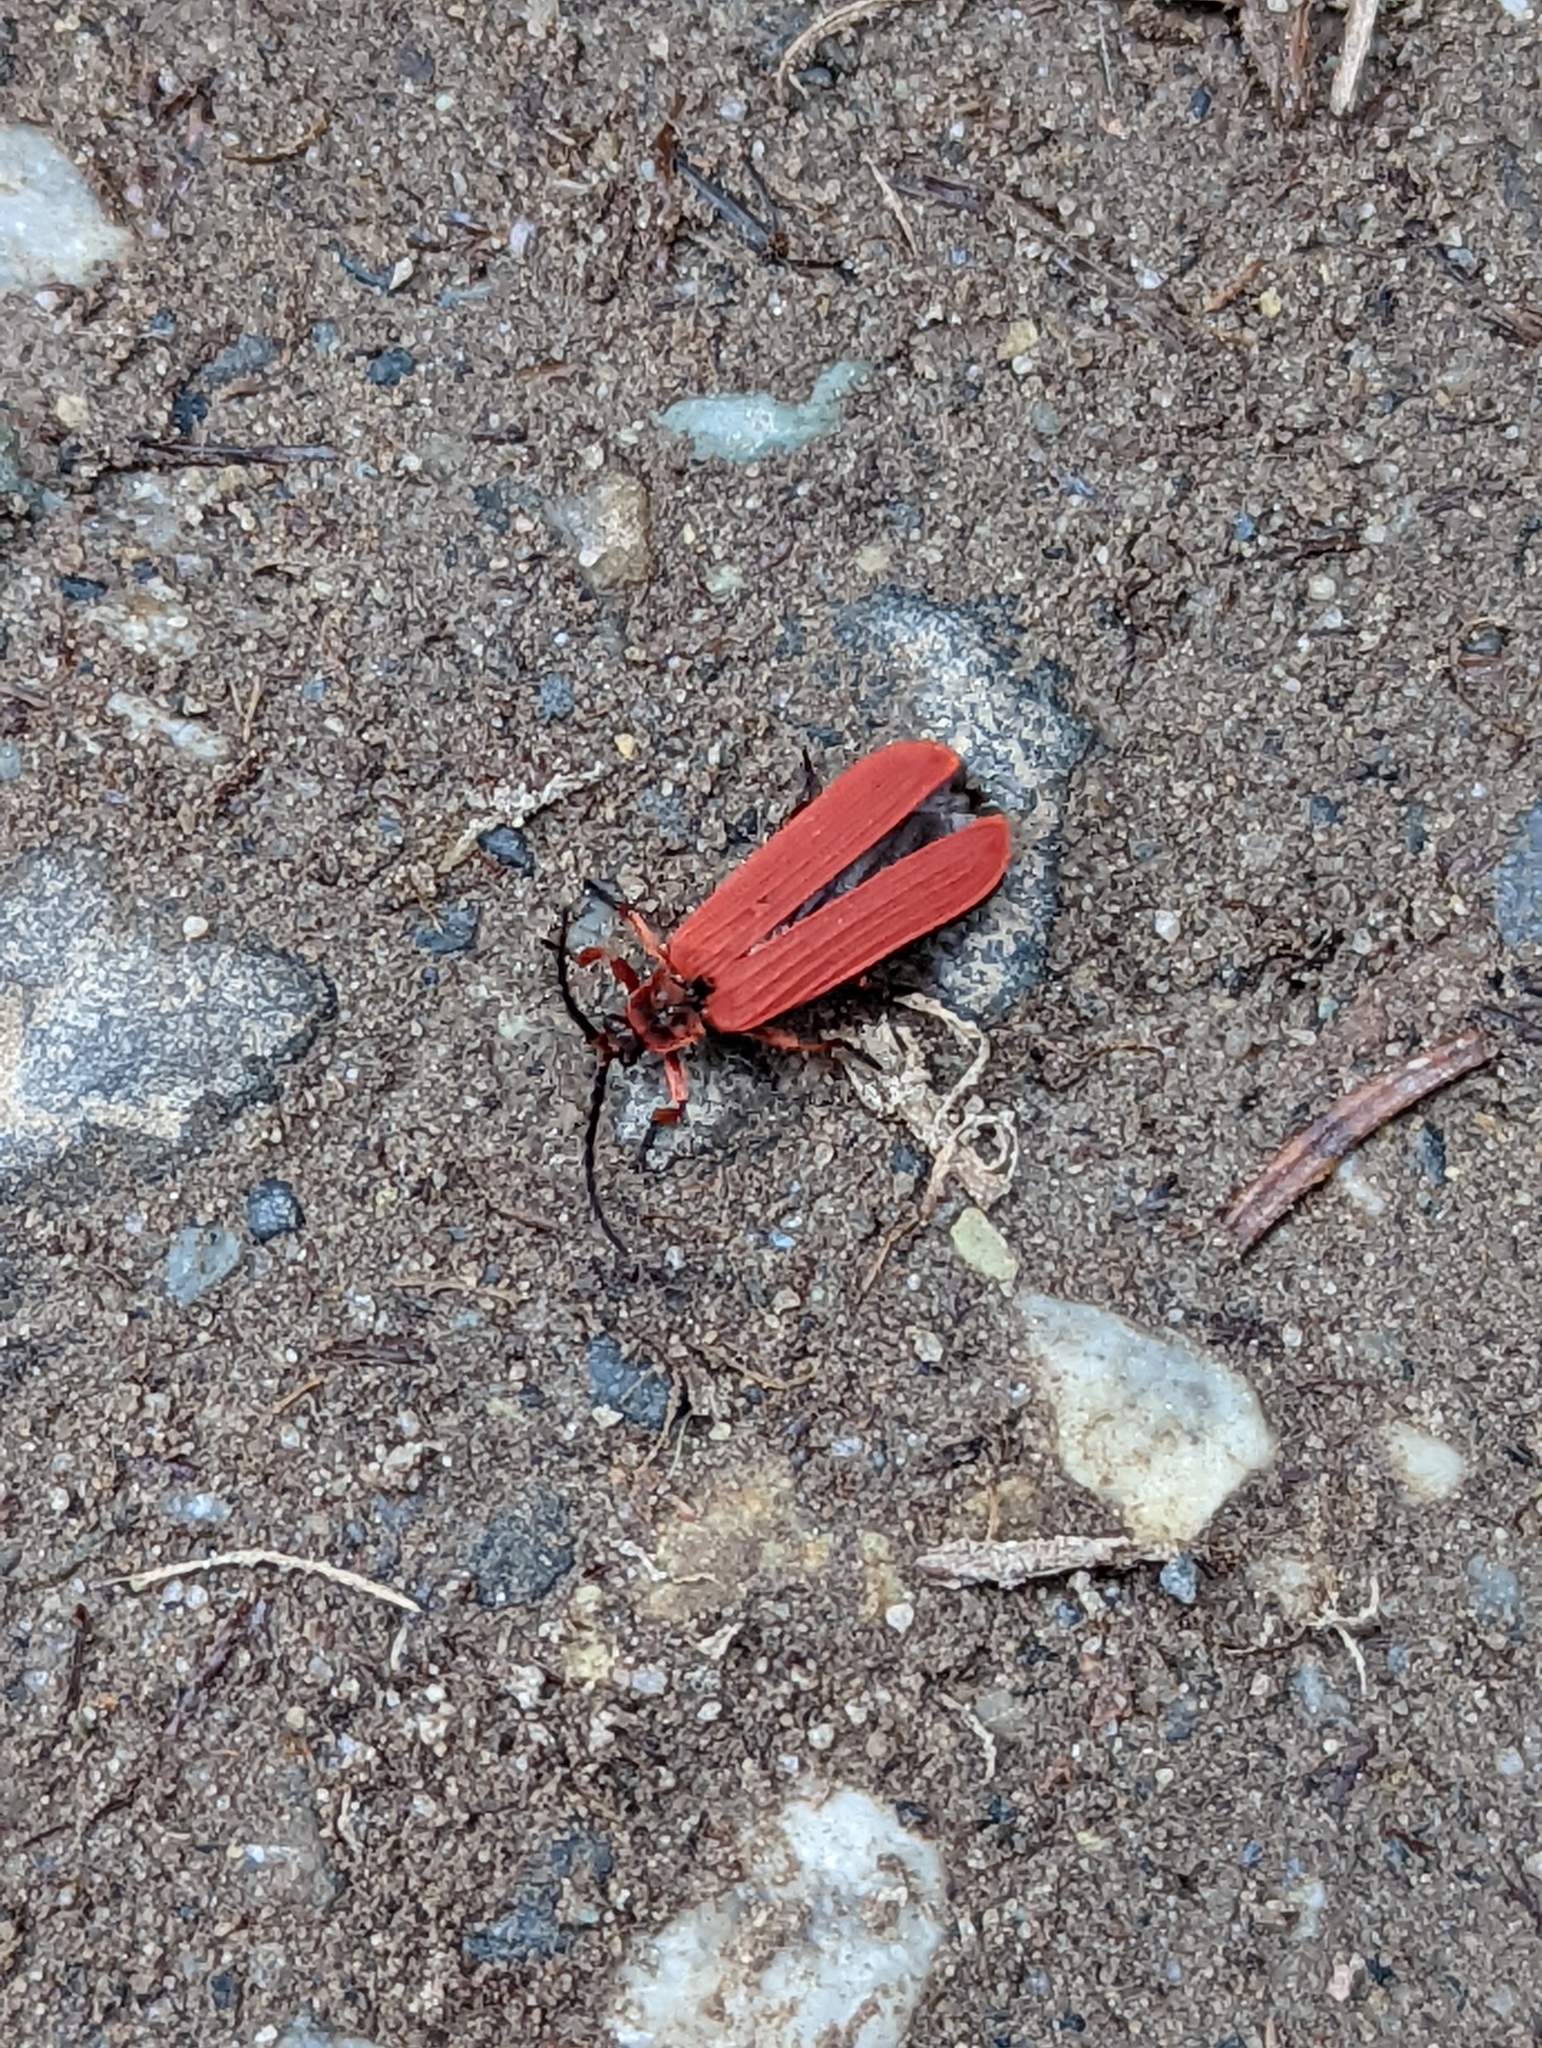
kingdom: Animalia
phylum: Arthropoda
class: Insecta
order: Coleoptera
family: Lycidae
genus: Dictyoptera
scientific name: Dictyoptera simplicipes
